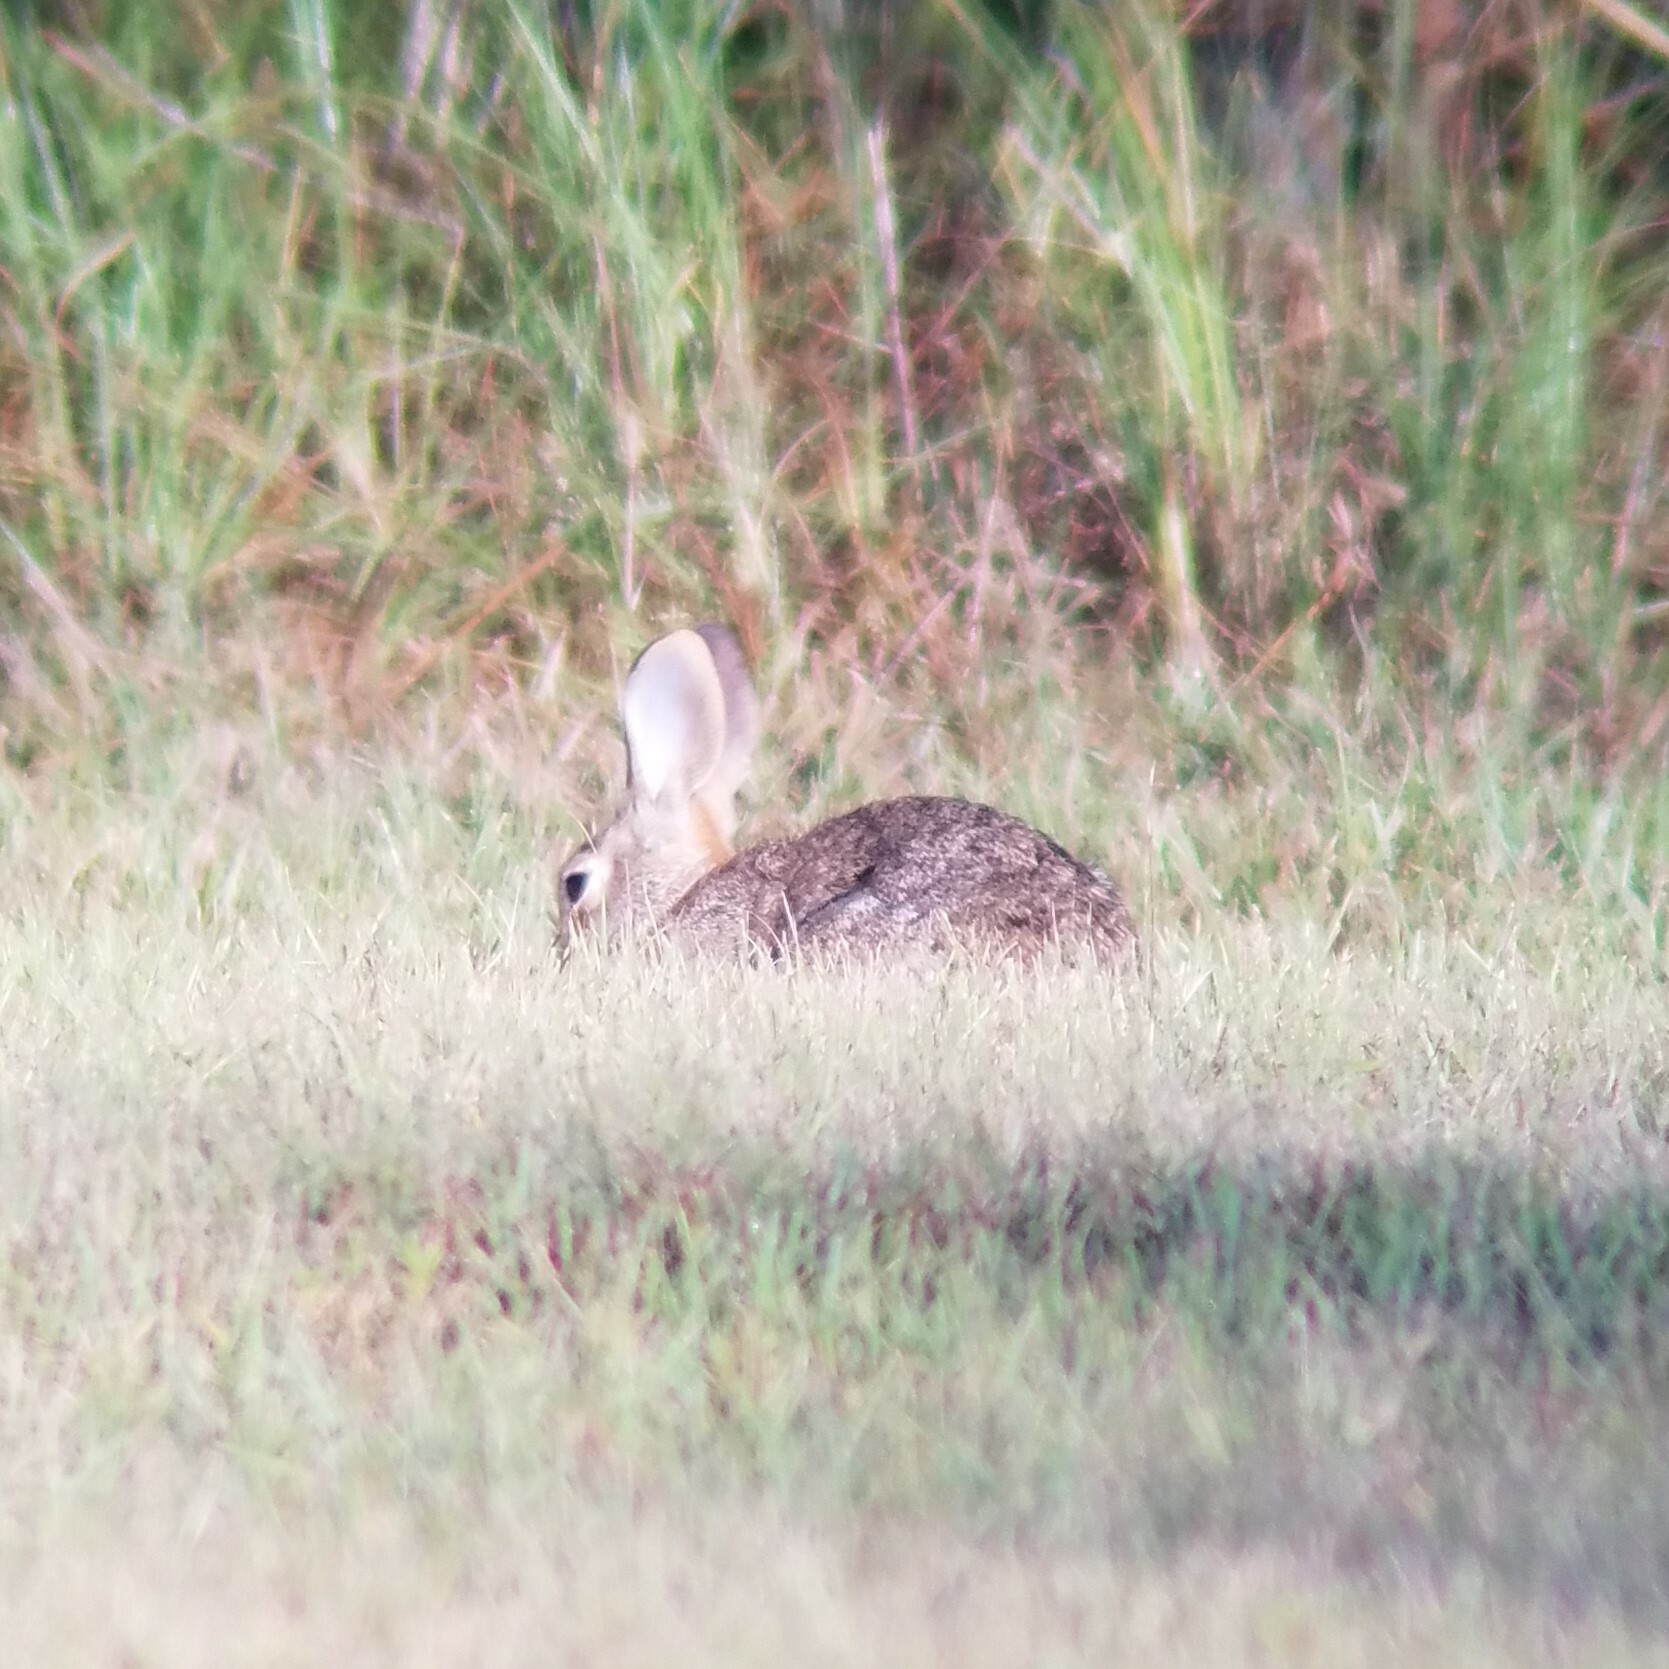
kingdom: Animalia
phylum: Chordata
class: Mammalia
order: Lagomorpha
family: Leporidae
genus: Sylvilagus
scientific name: Sylvilagus floridanus
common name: Eastern cottontail
